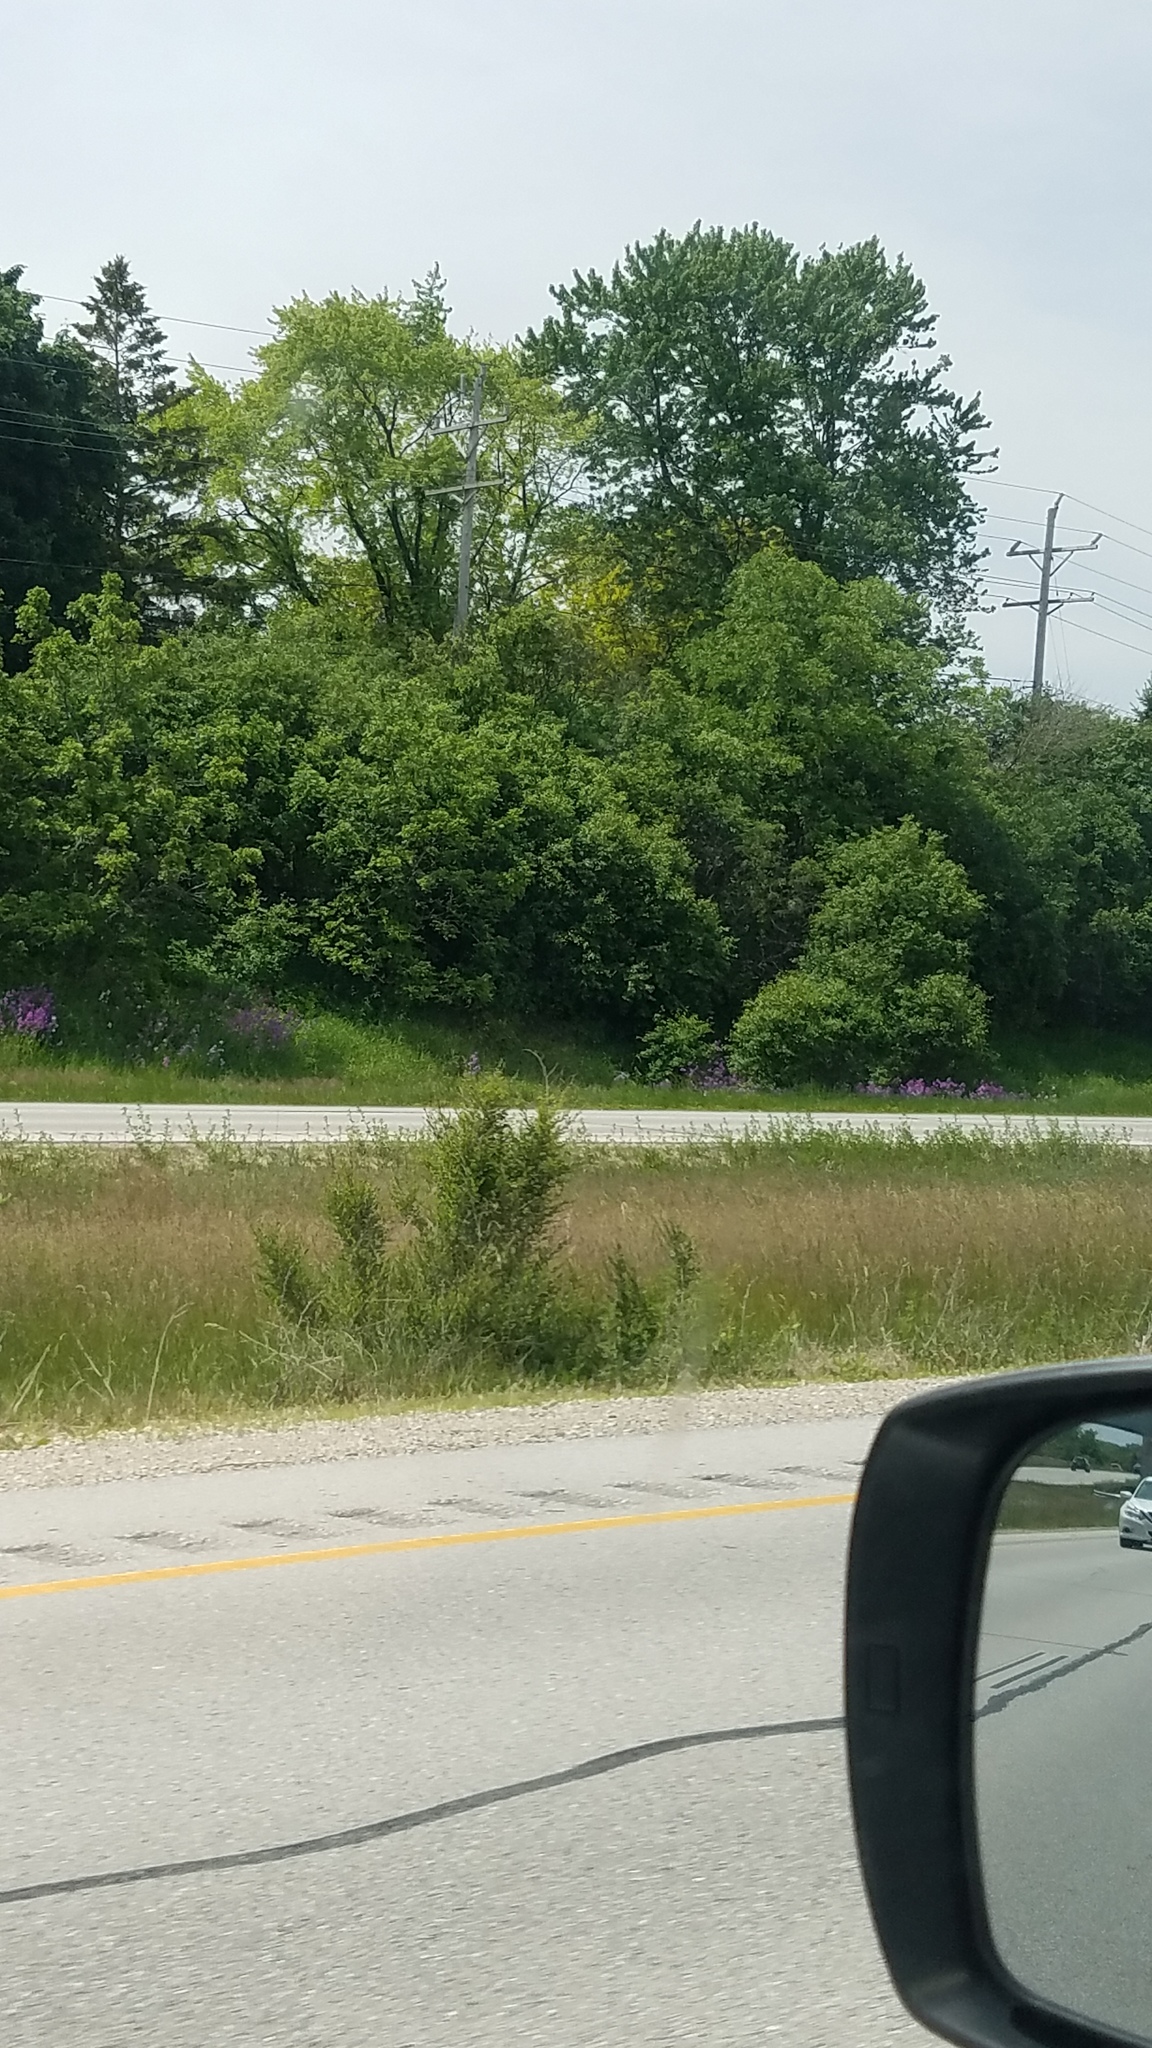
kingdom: Plantae
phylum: Tracheophyta
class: Magnoliopsida
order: Brassicales
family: Brassicaceae
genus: Hesperis
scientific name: Hesperis matronalis
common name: Dame's-violet
